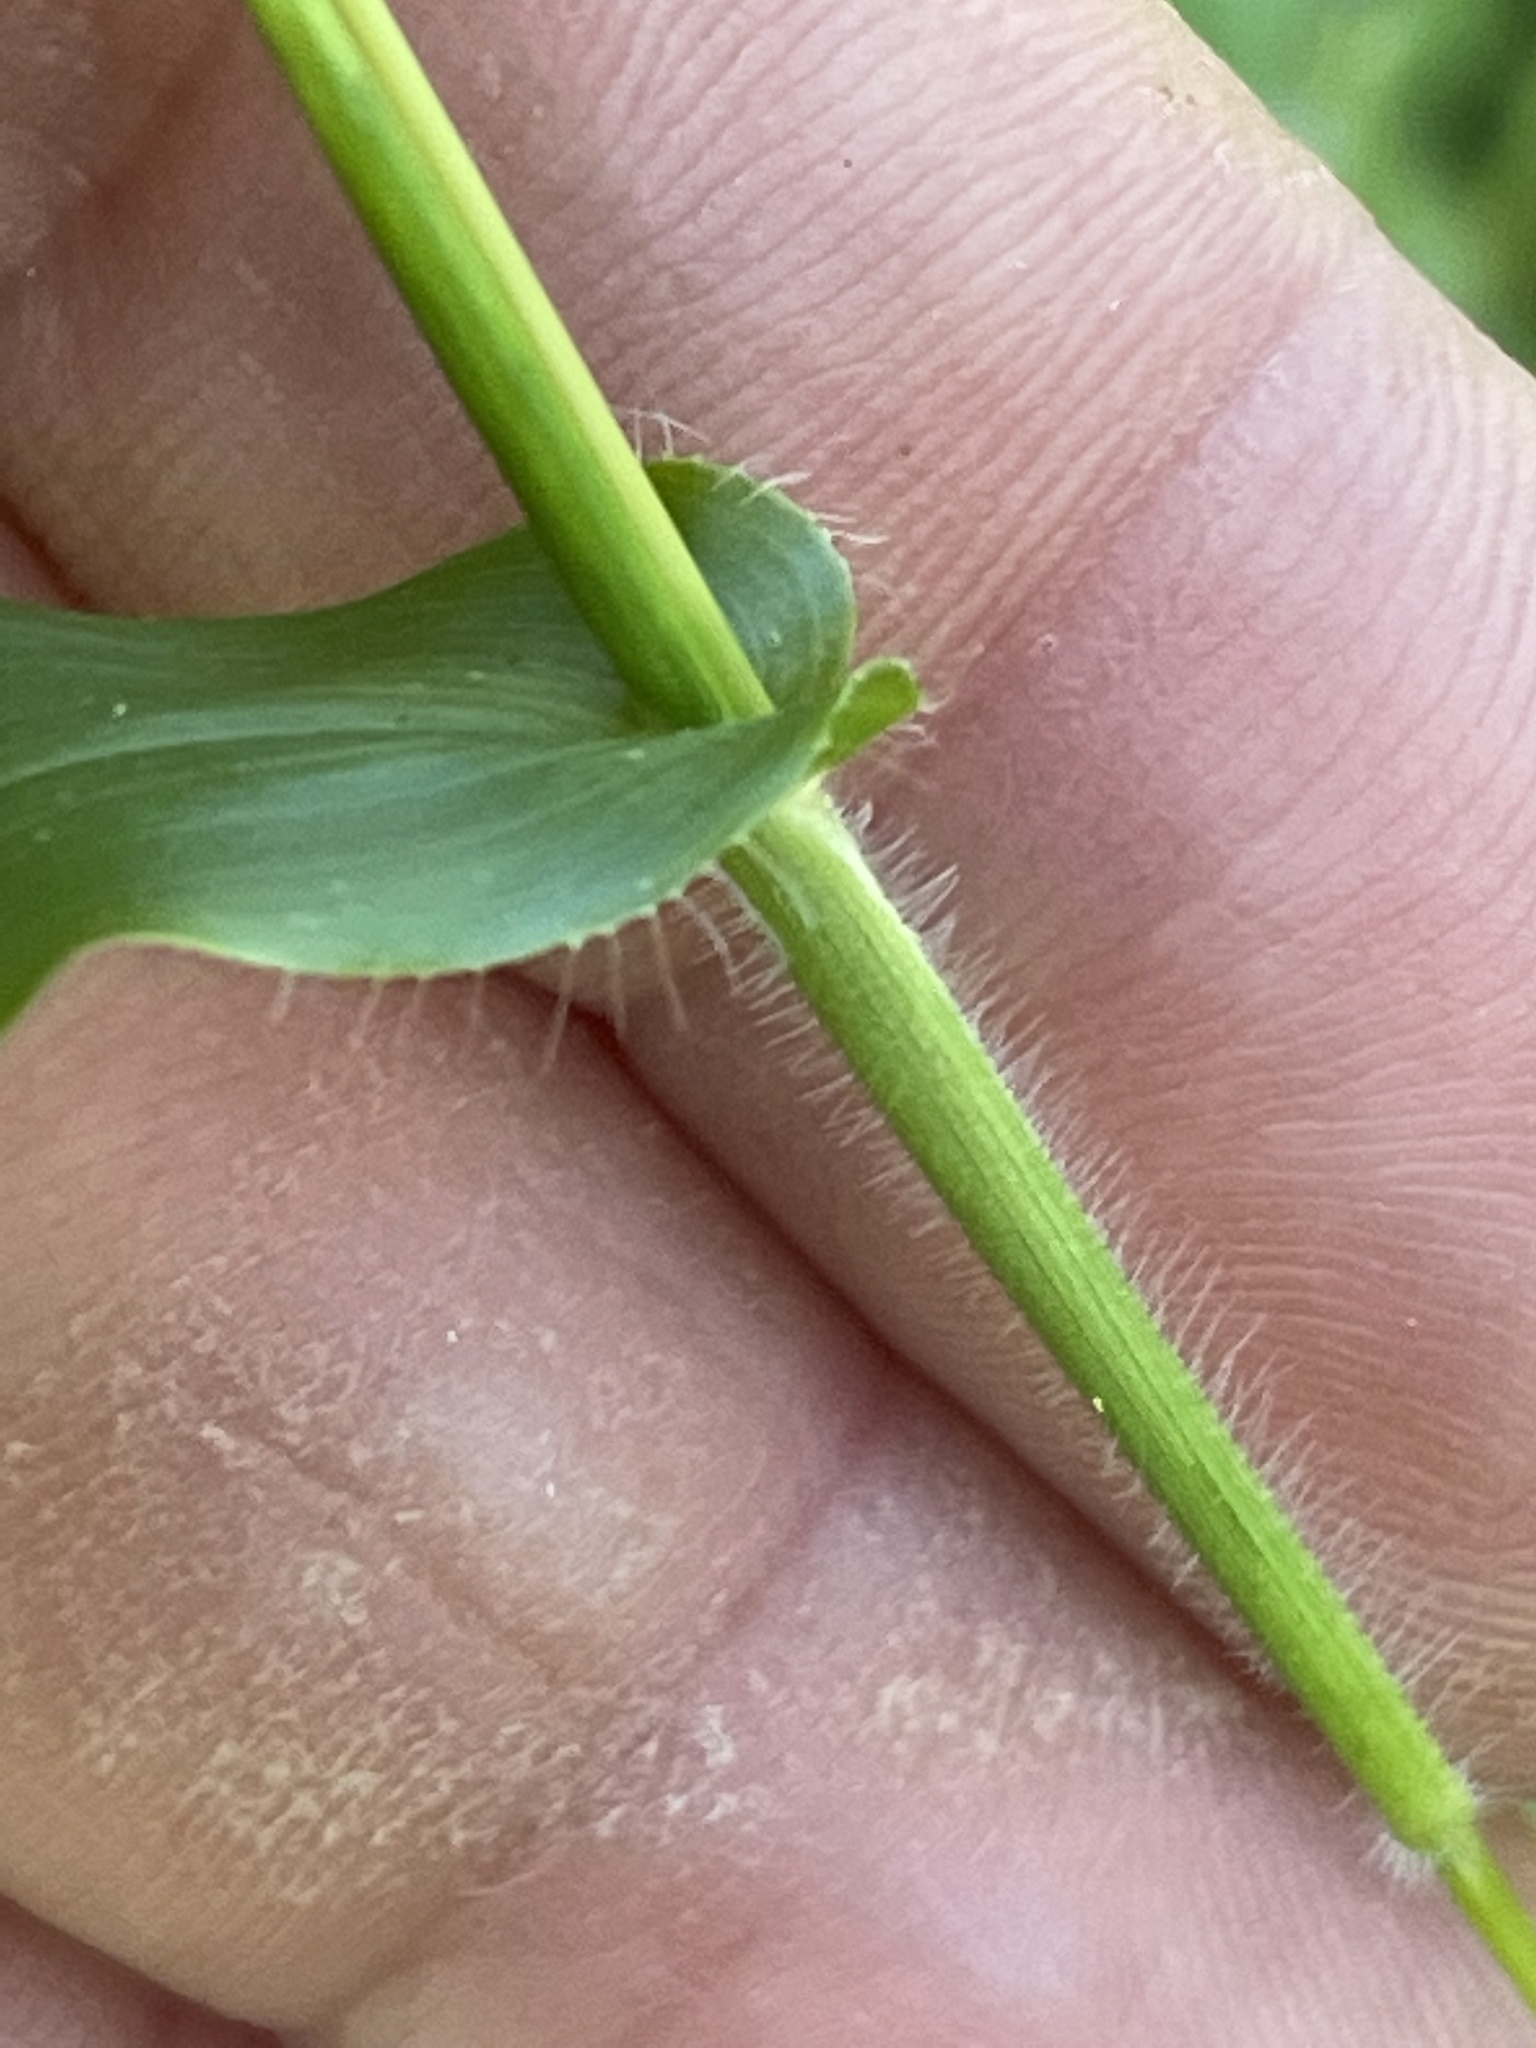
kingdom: Plantae
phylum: Tracheophyta
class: Liliopsida
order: Poales
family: Poaceae
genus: Arthraxon
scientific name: Arthraxon hispidus
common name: Small carpgrass
